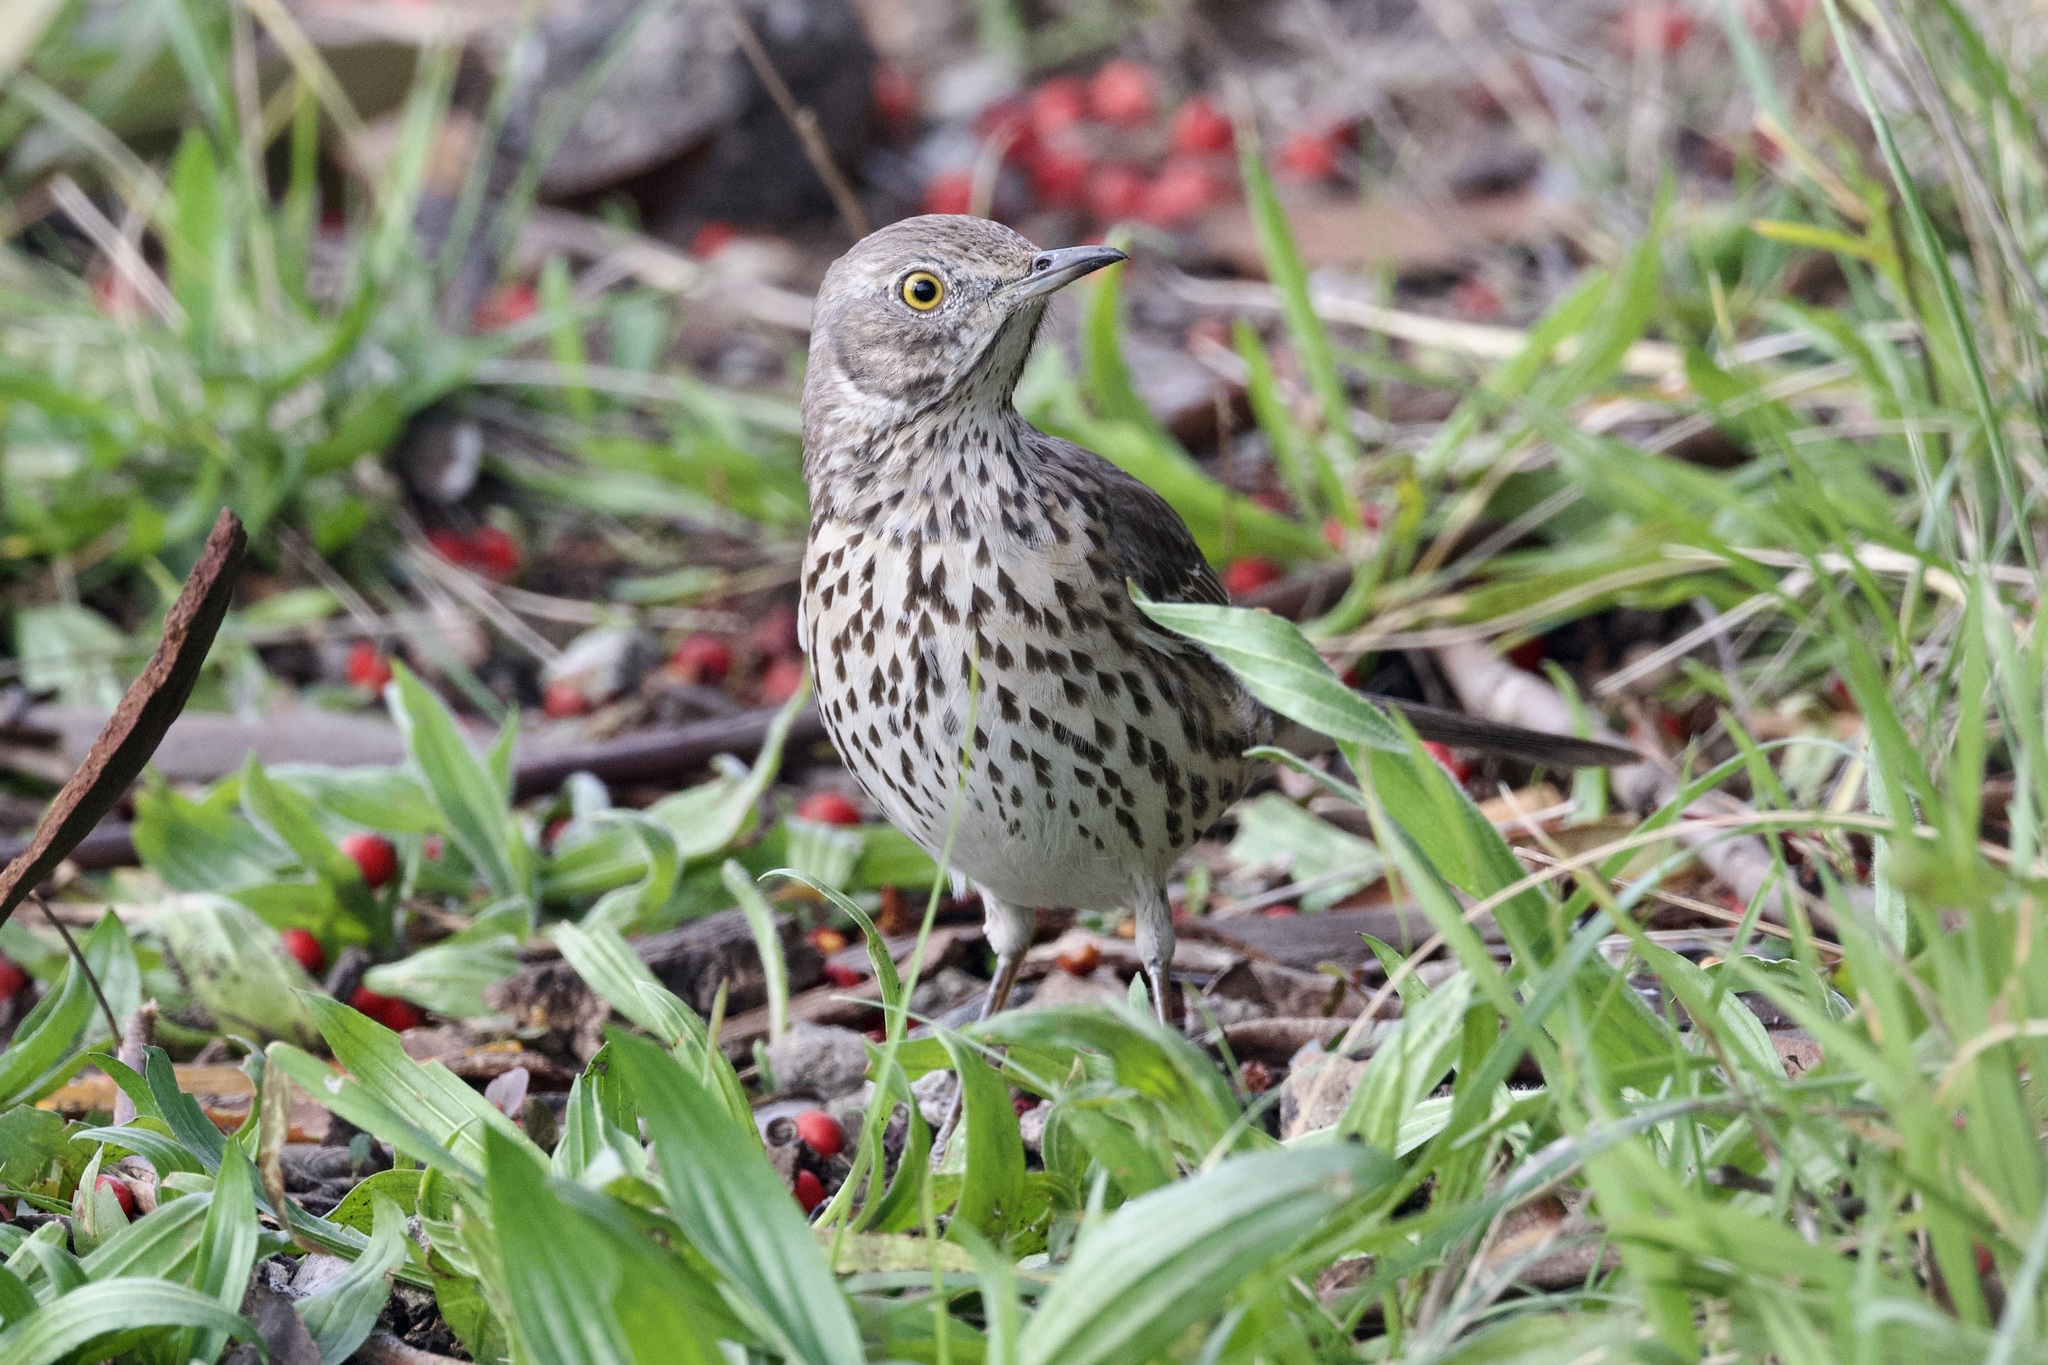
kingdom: Animalia
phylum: Chordata
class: Aves
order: Passeriformes
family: Mimidae
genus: Oreoscoptes
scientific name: Oreoscoptes montanus
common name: Sage thrasher
